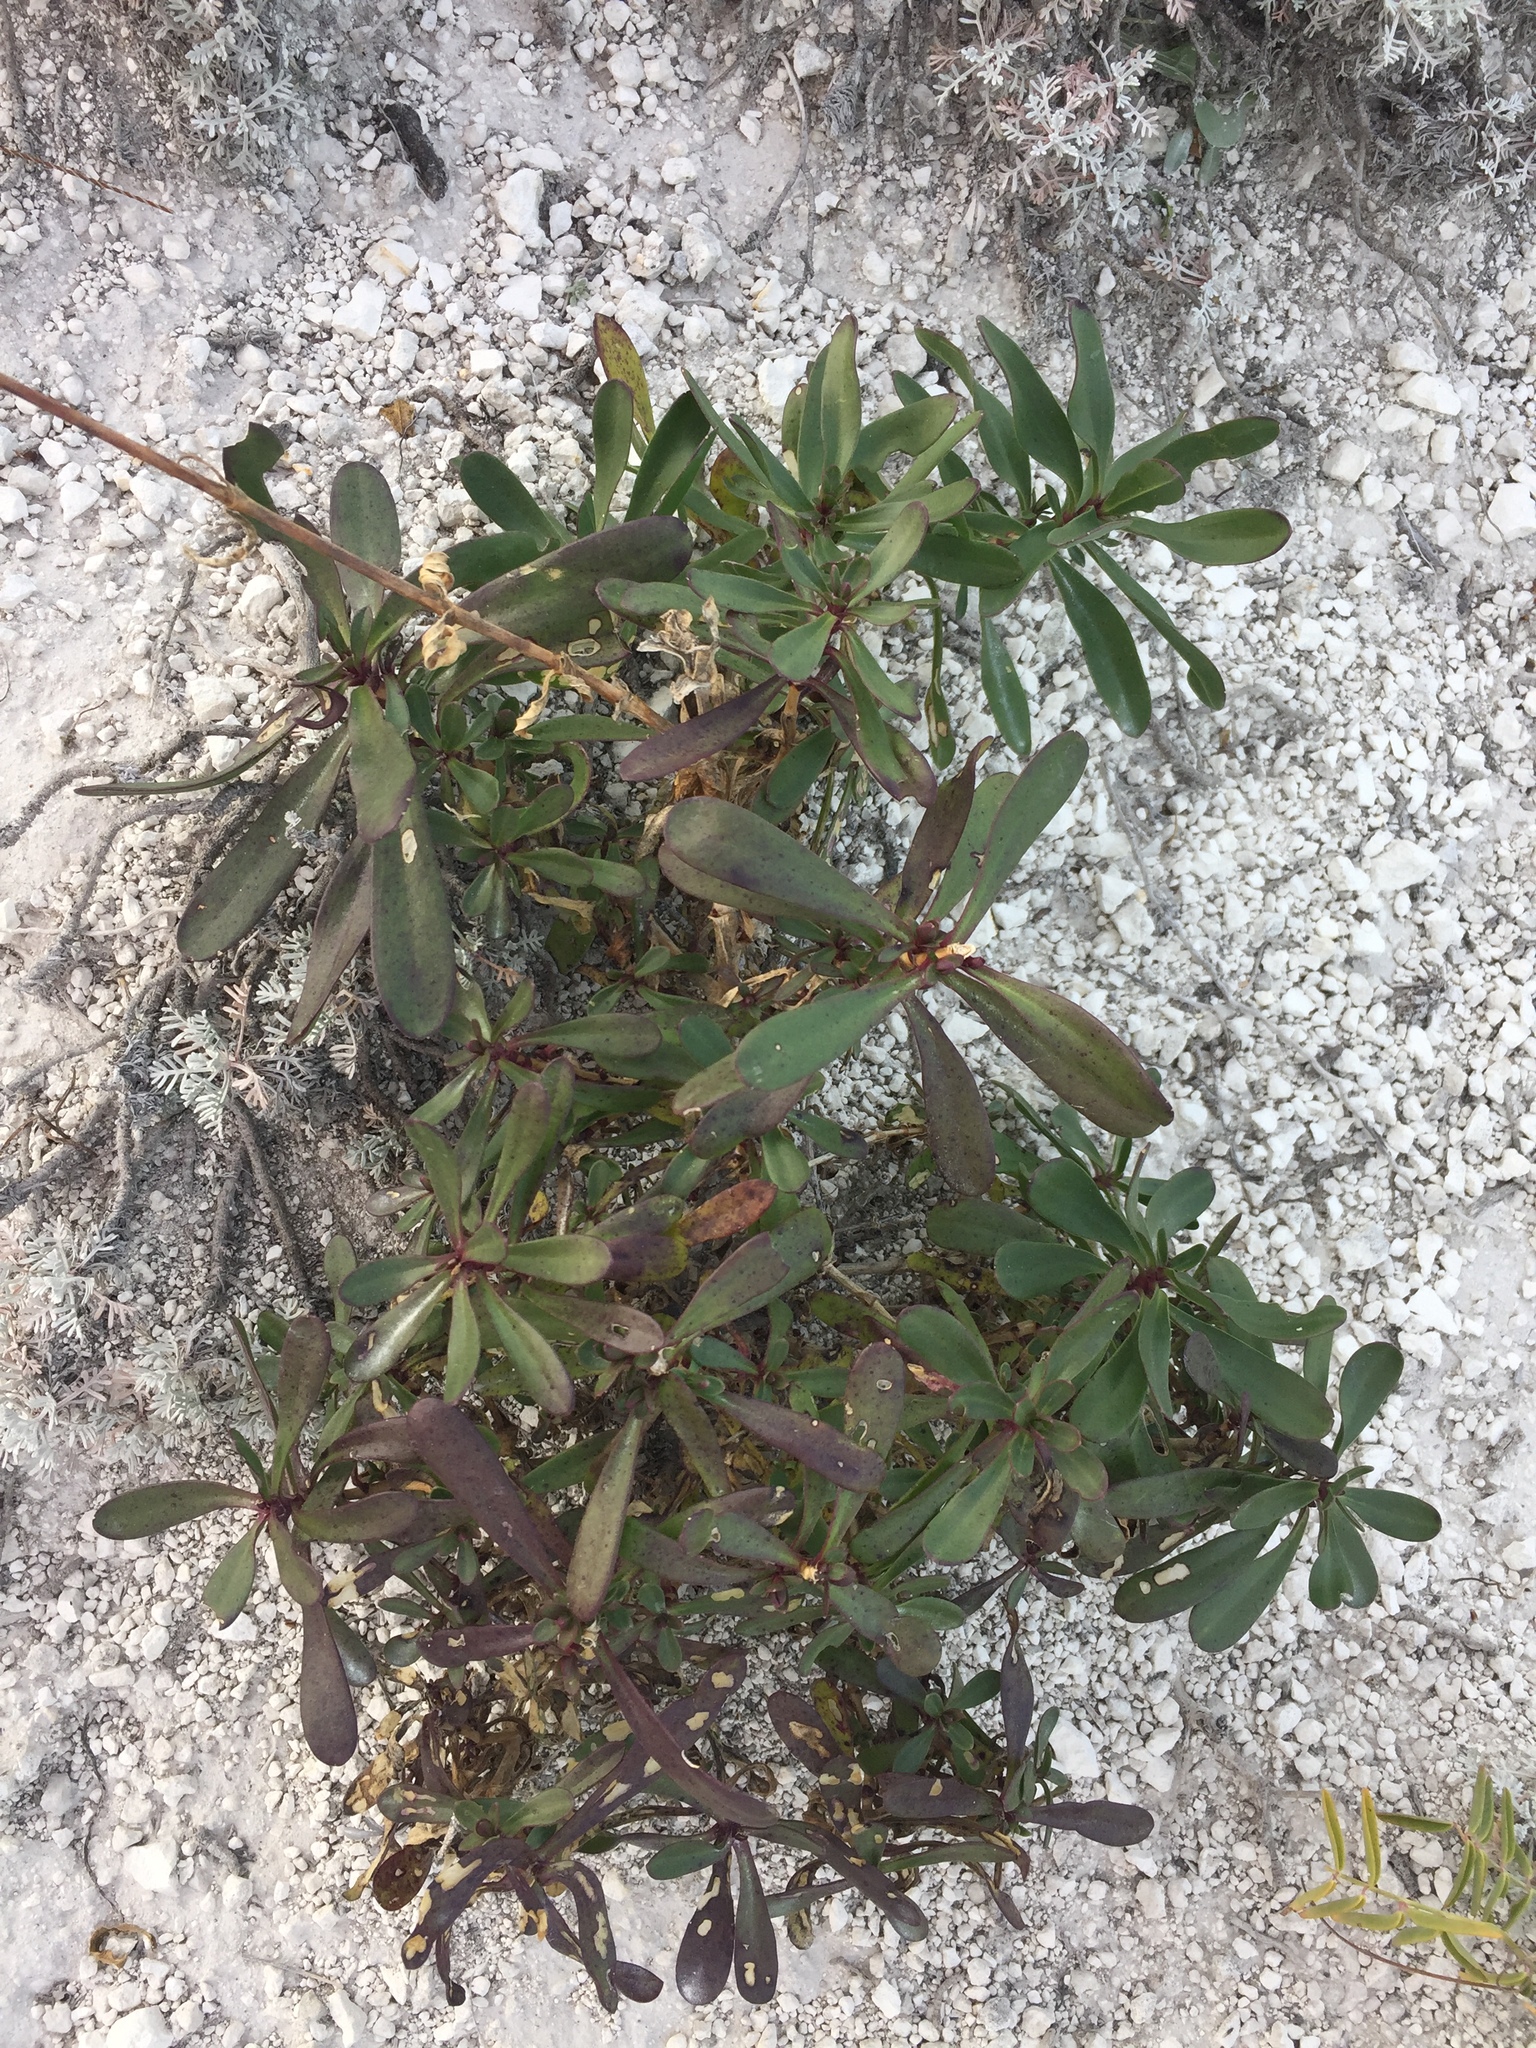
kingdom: Plantae
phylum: Tracheophyta
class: Magnoliopsida
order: Caryophyllales
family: Caryophyllaceae
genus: Gypsophila
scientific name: Gypsophila altissima
